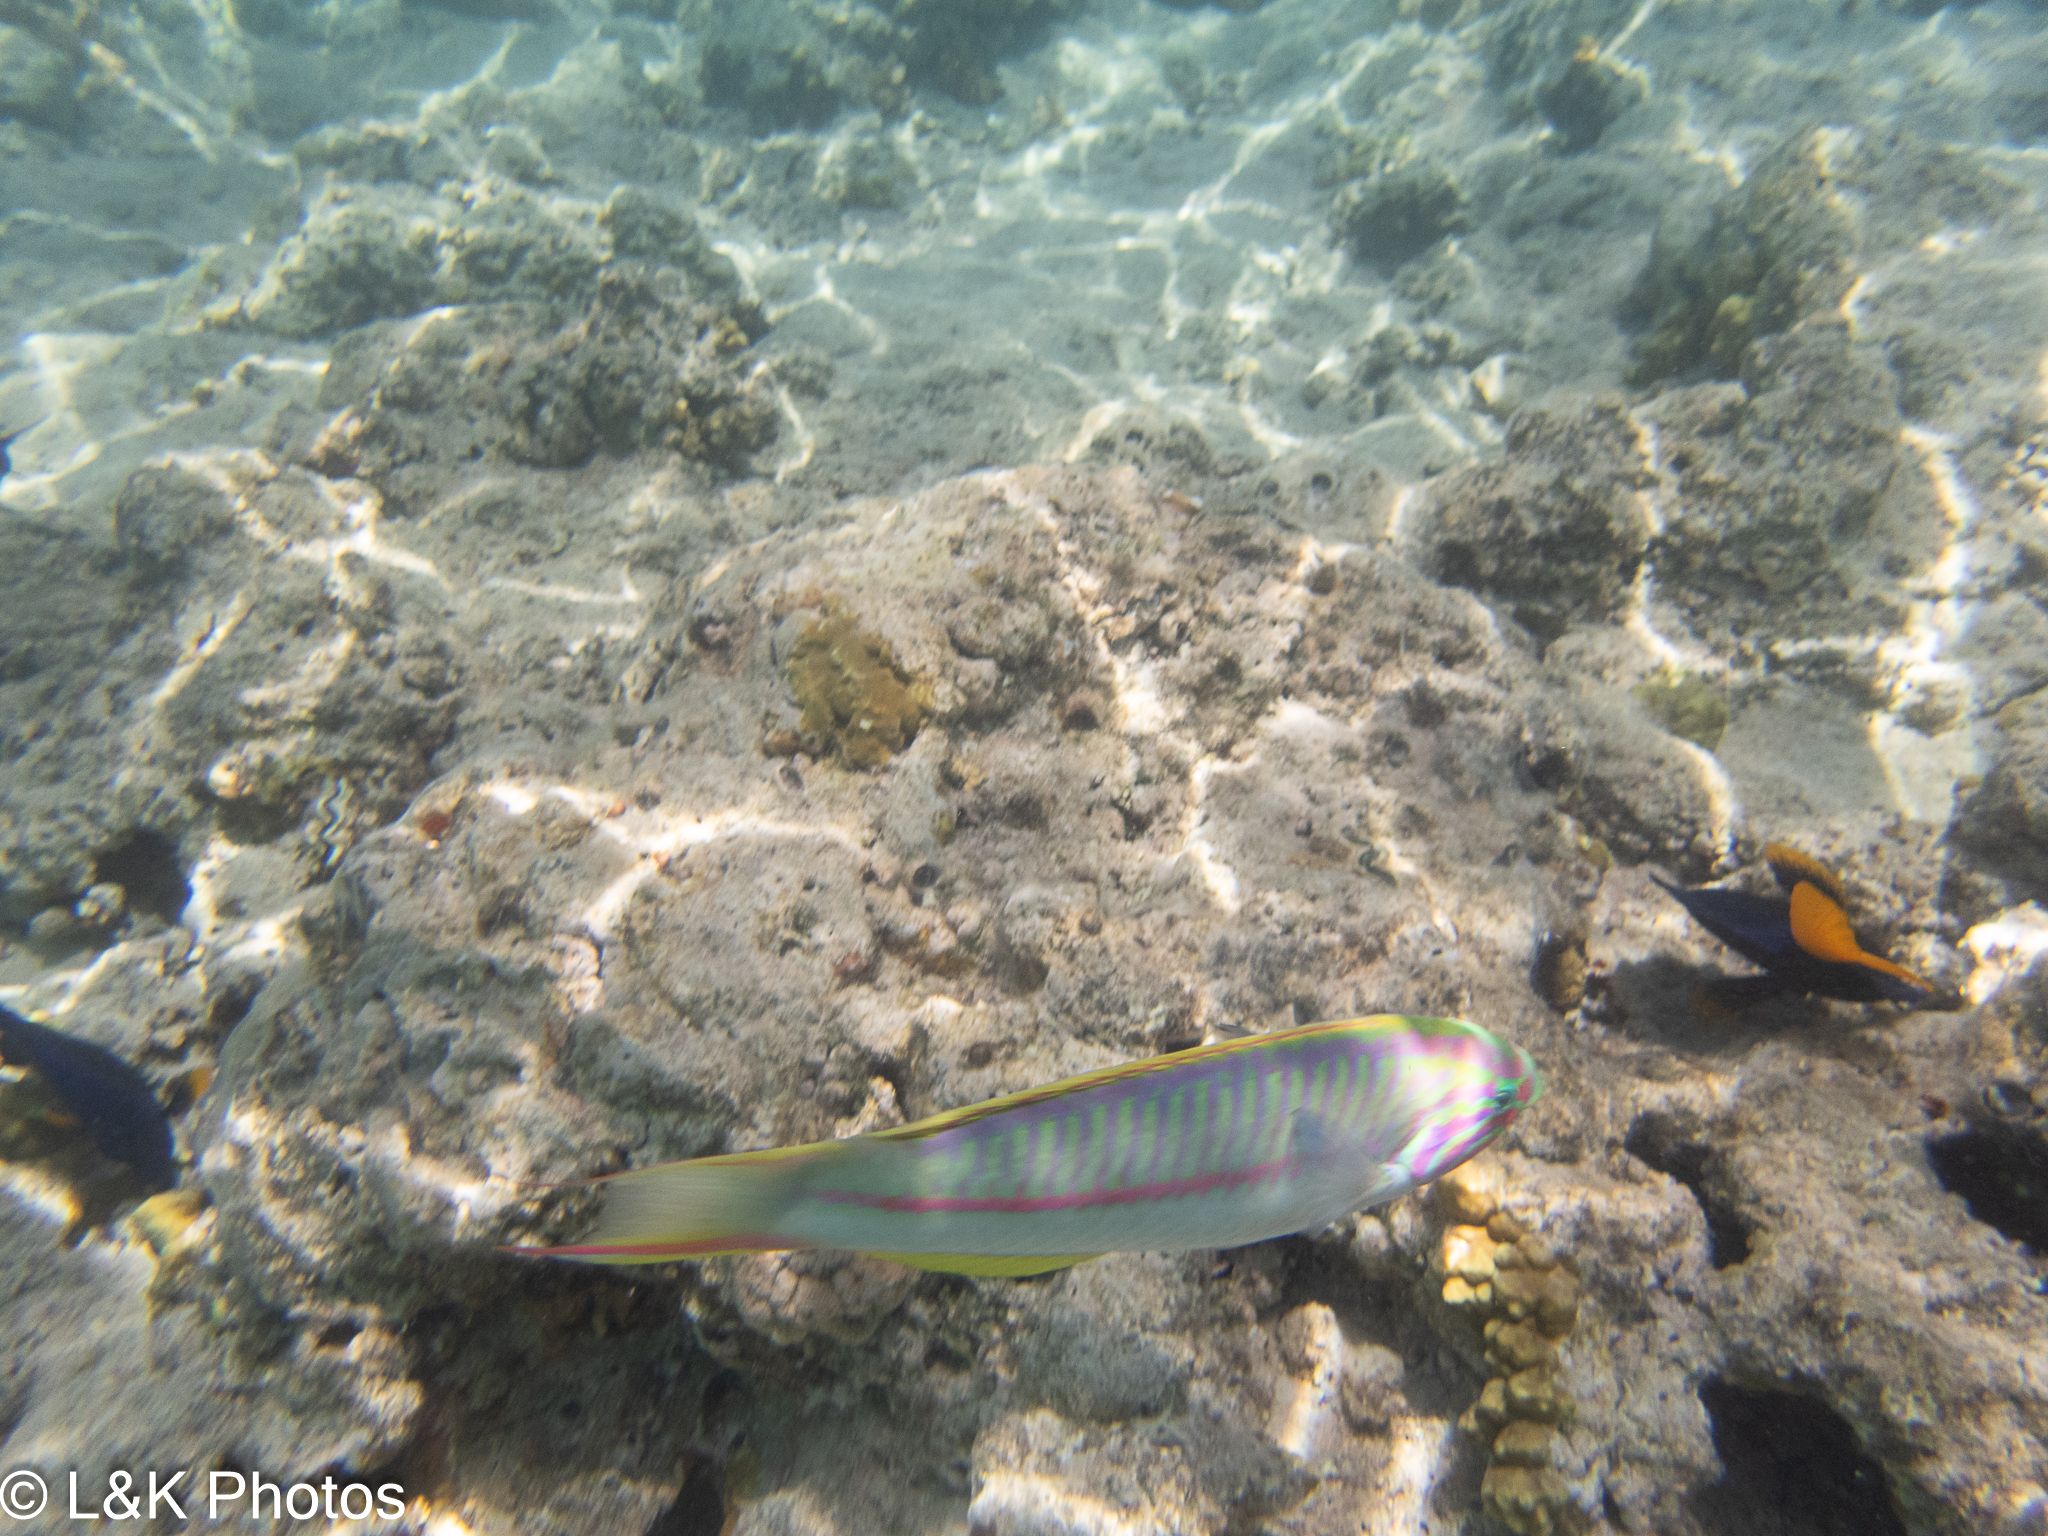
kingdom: Animalia
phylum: Chordata
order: Perciformes
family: Labridae
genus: Thalassoma
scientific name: Thalassoma rueppellii
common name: Klunzinger's wrasse
